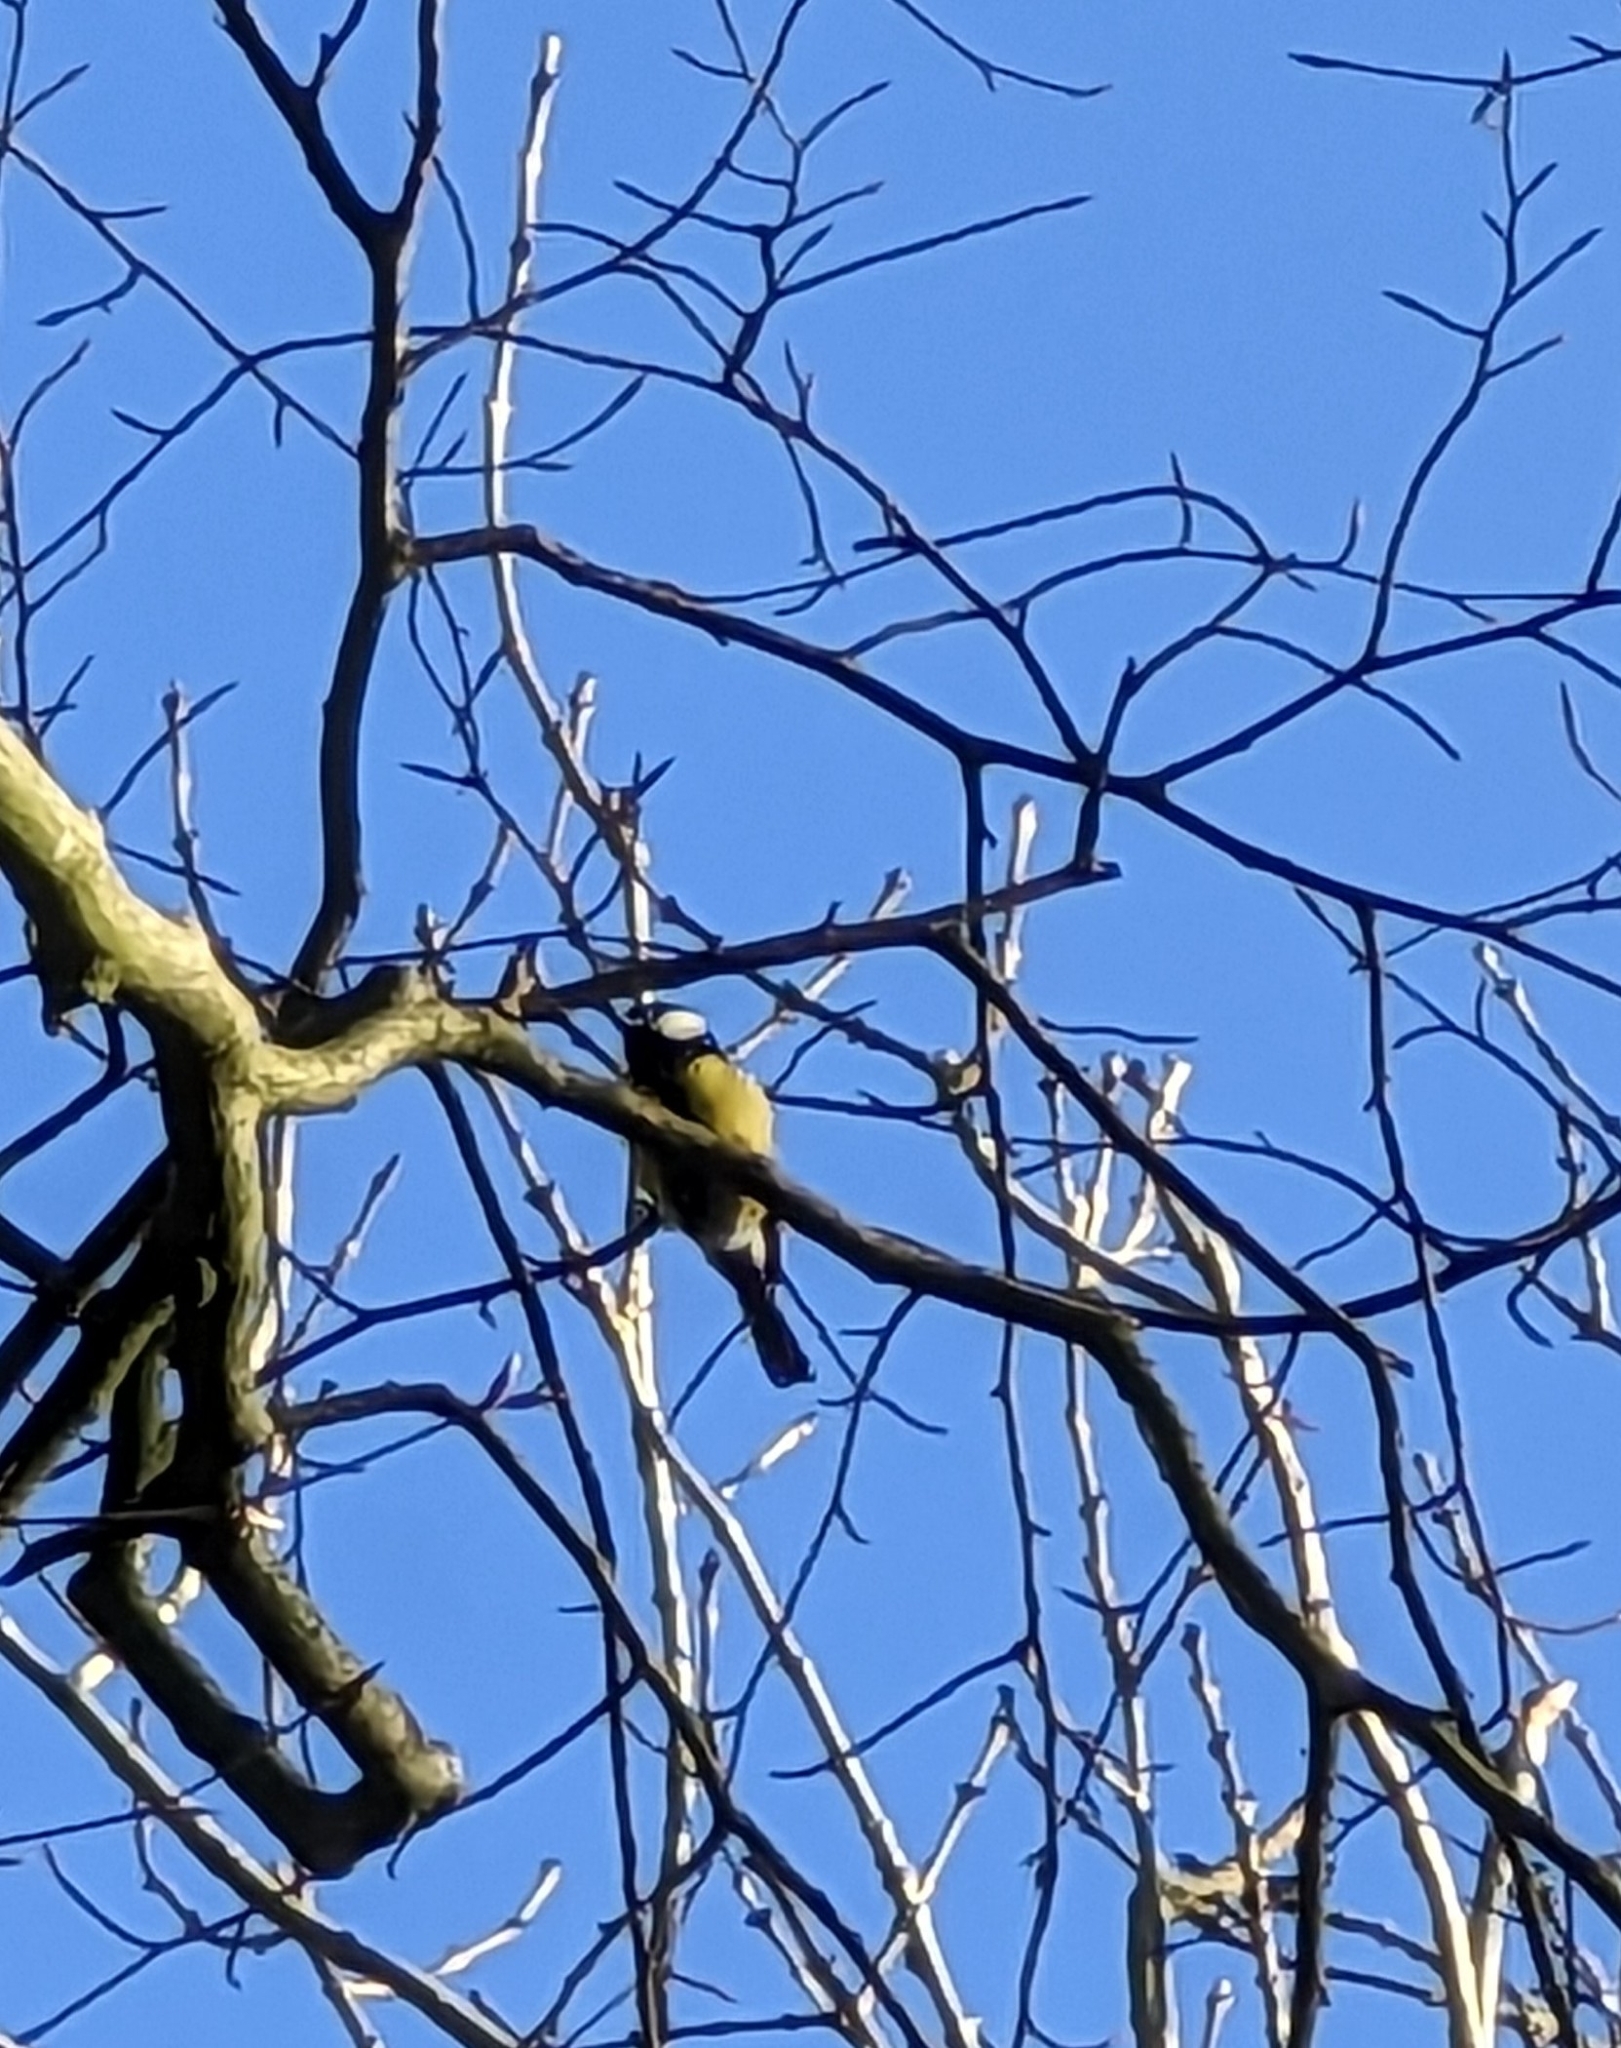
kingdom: Animalia
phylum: Chordata
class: Aves
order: Passeriformes
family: Paridae
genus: Parus
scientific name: Parus major
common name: Great tit
